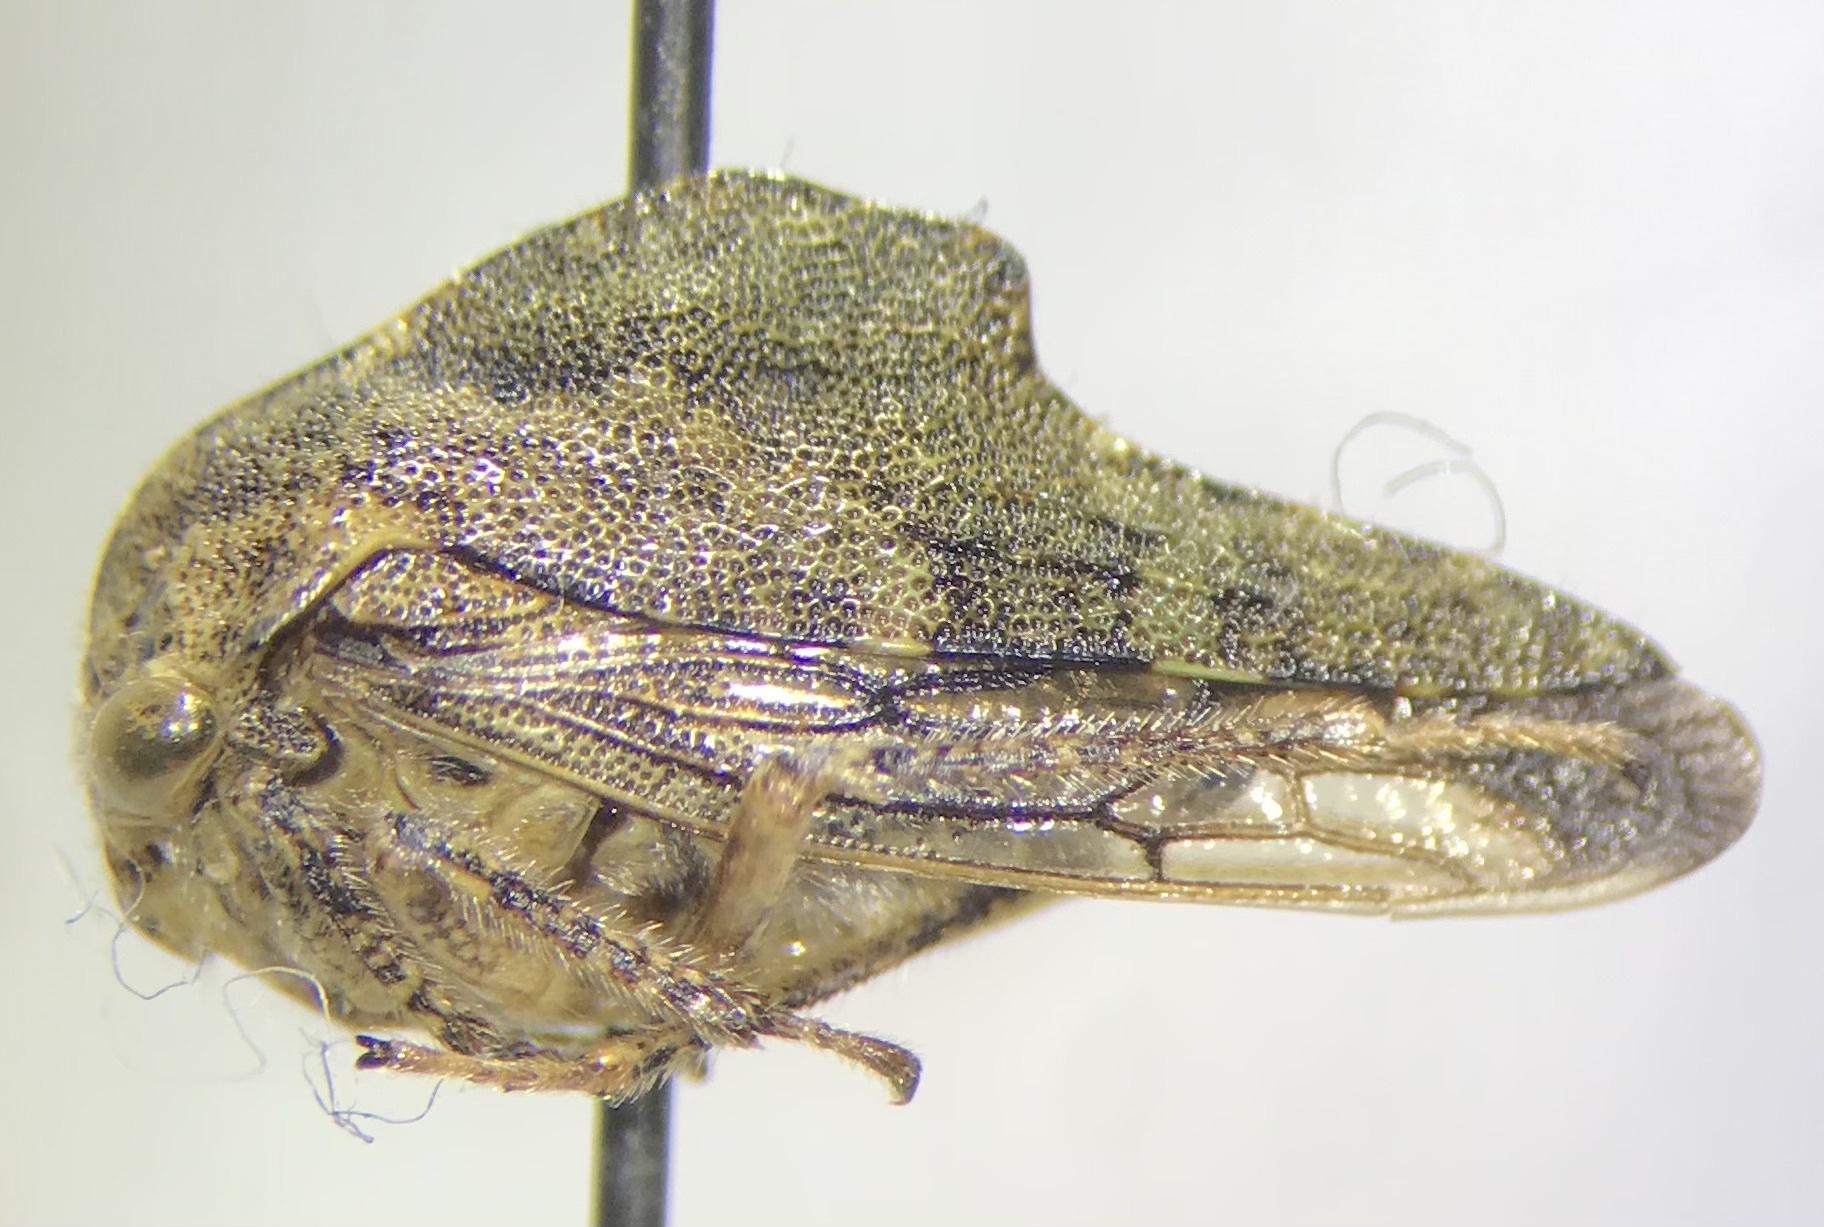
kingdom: Animalia
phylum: Arthropoda
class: Insecta
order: Hemiptera
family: Membracidae
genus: Telamona
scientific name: Telamona reclivata
